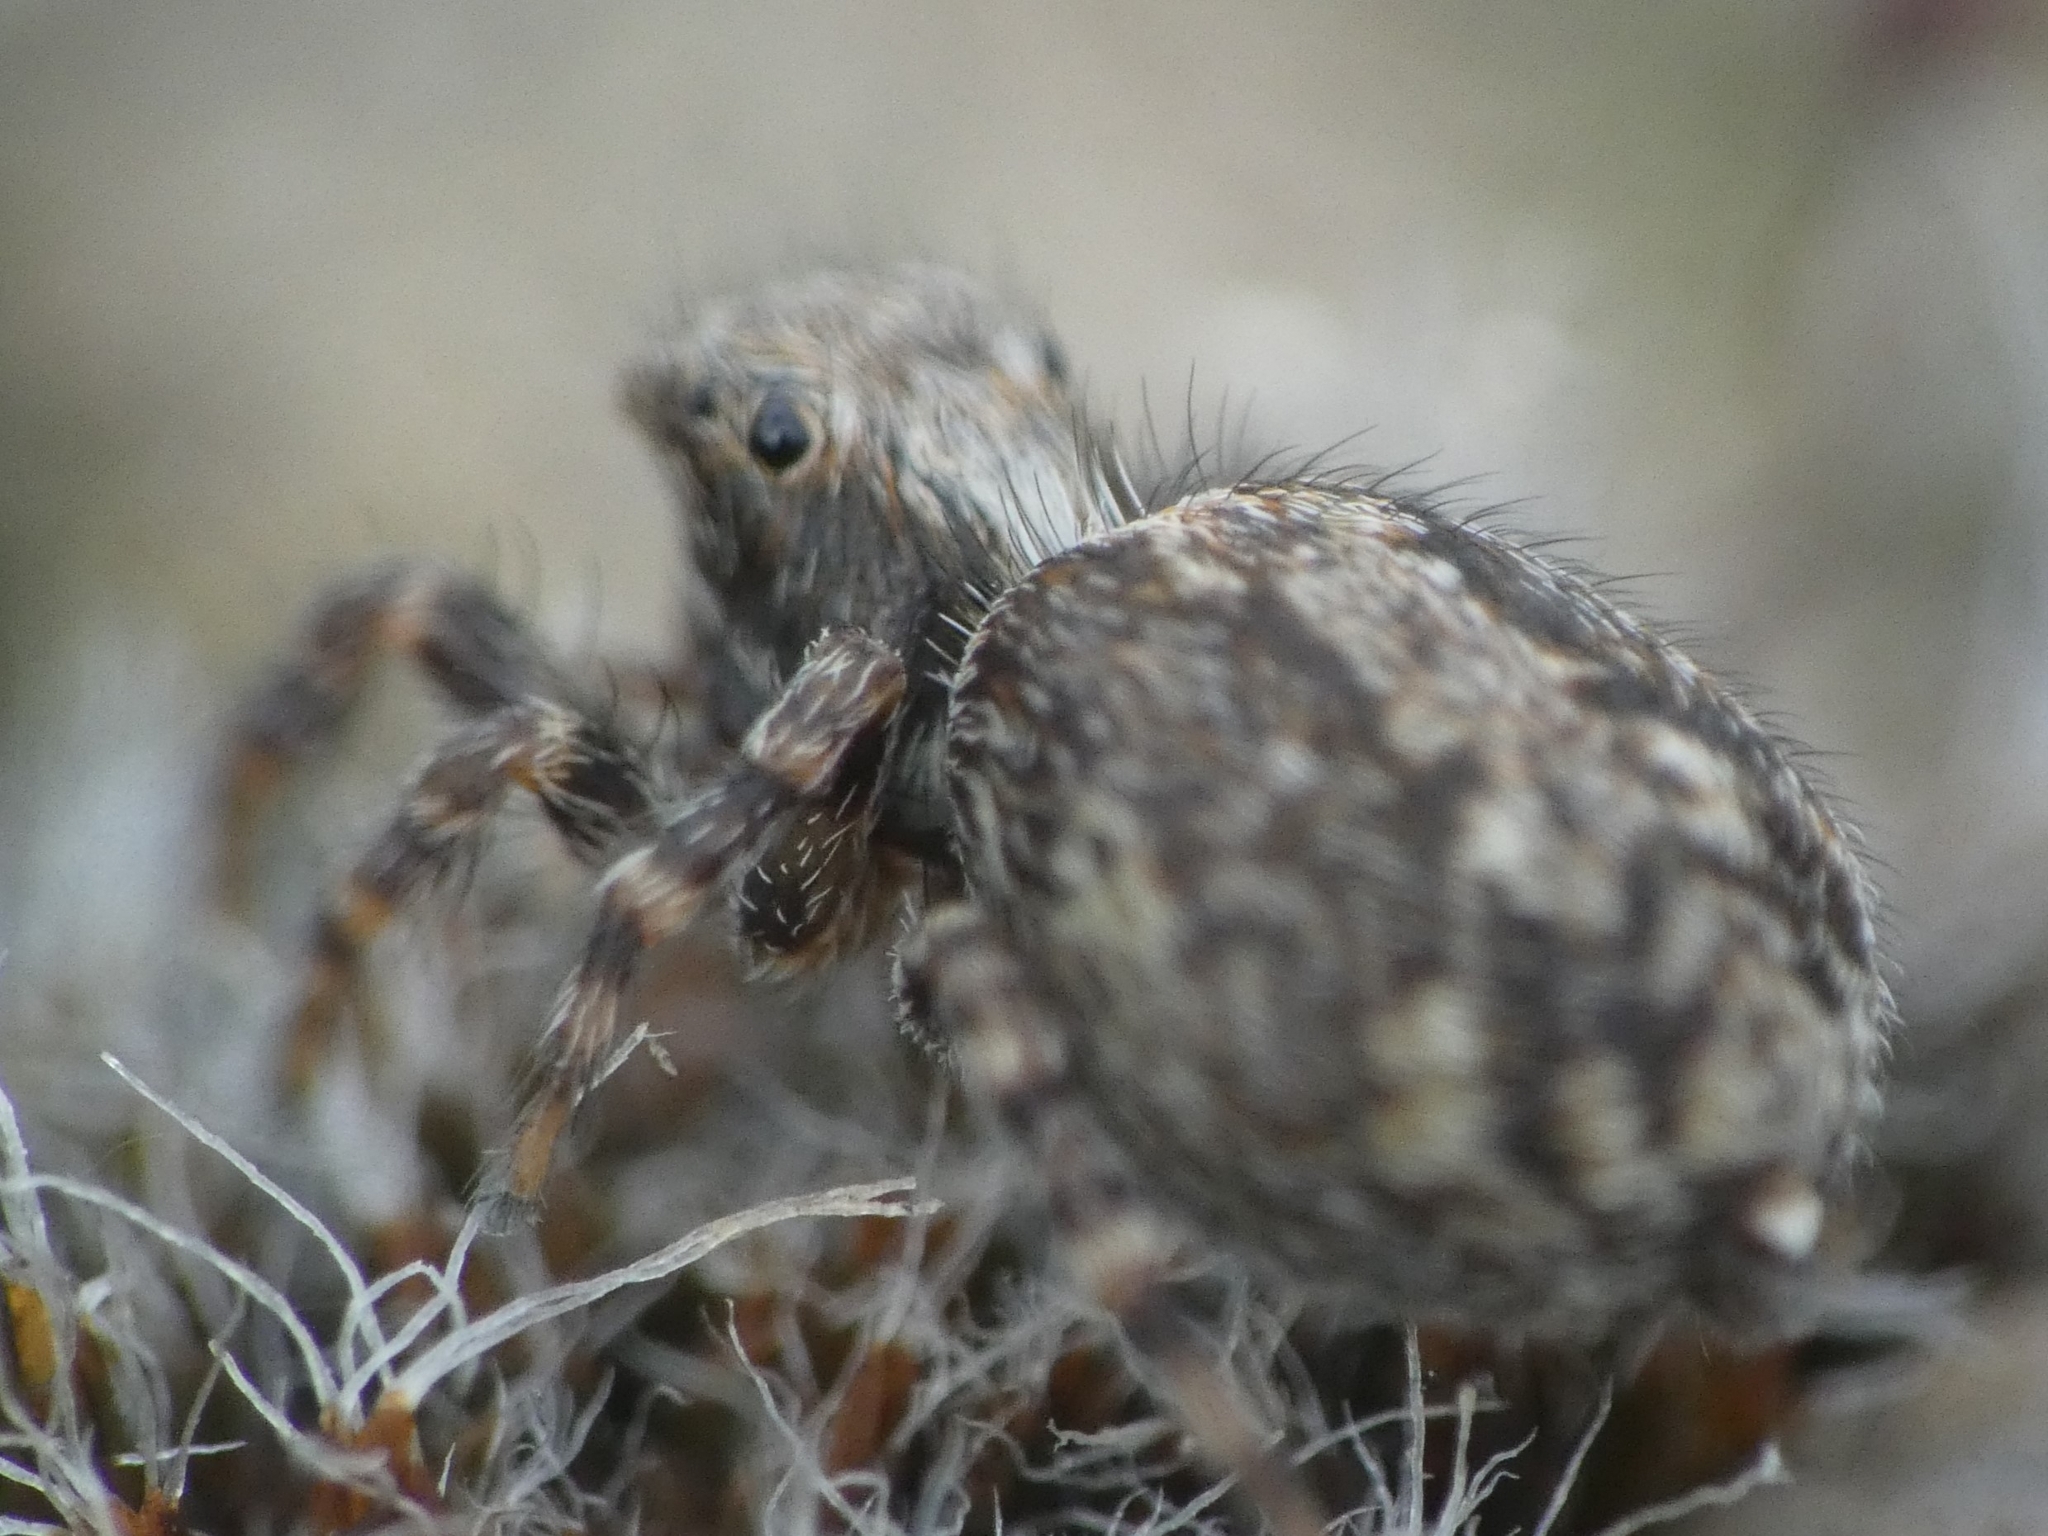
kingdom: Animalia
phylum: Arthropoda
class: Arachnida
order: Araneae
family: Salticidae
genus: Pseudeuophrys
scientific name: Pseudeuophrys lanigera
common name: Jumping spider
